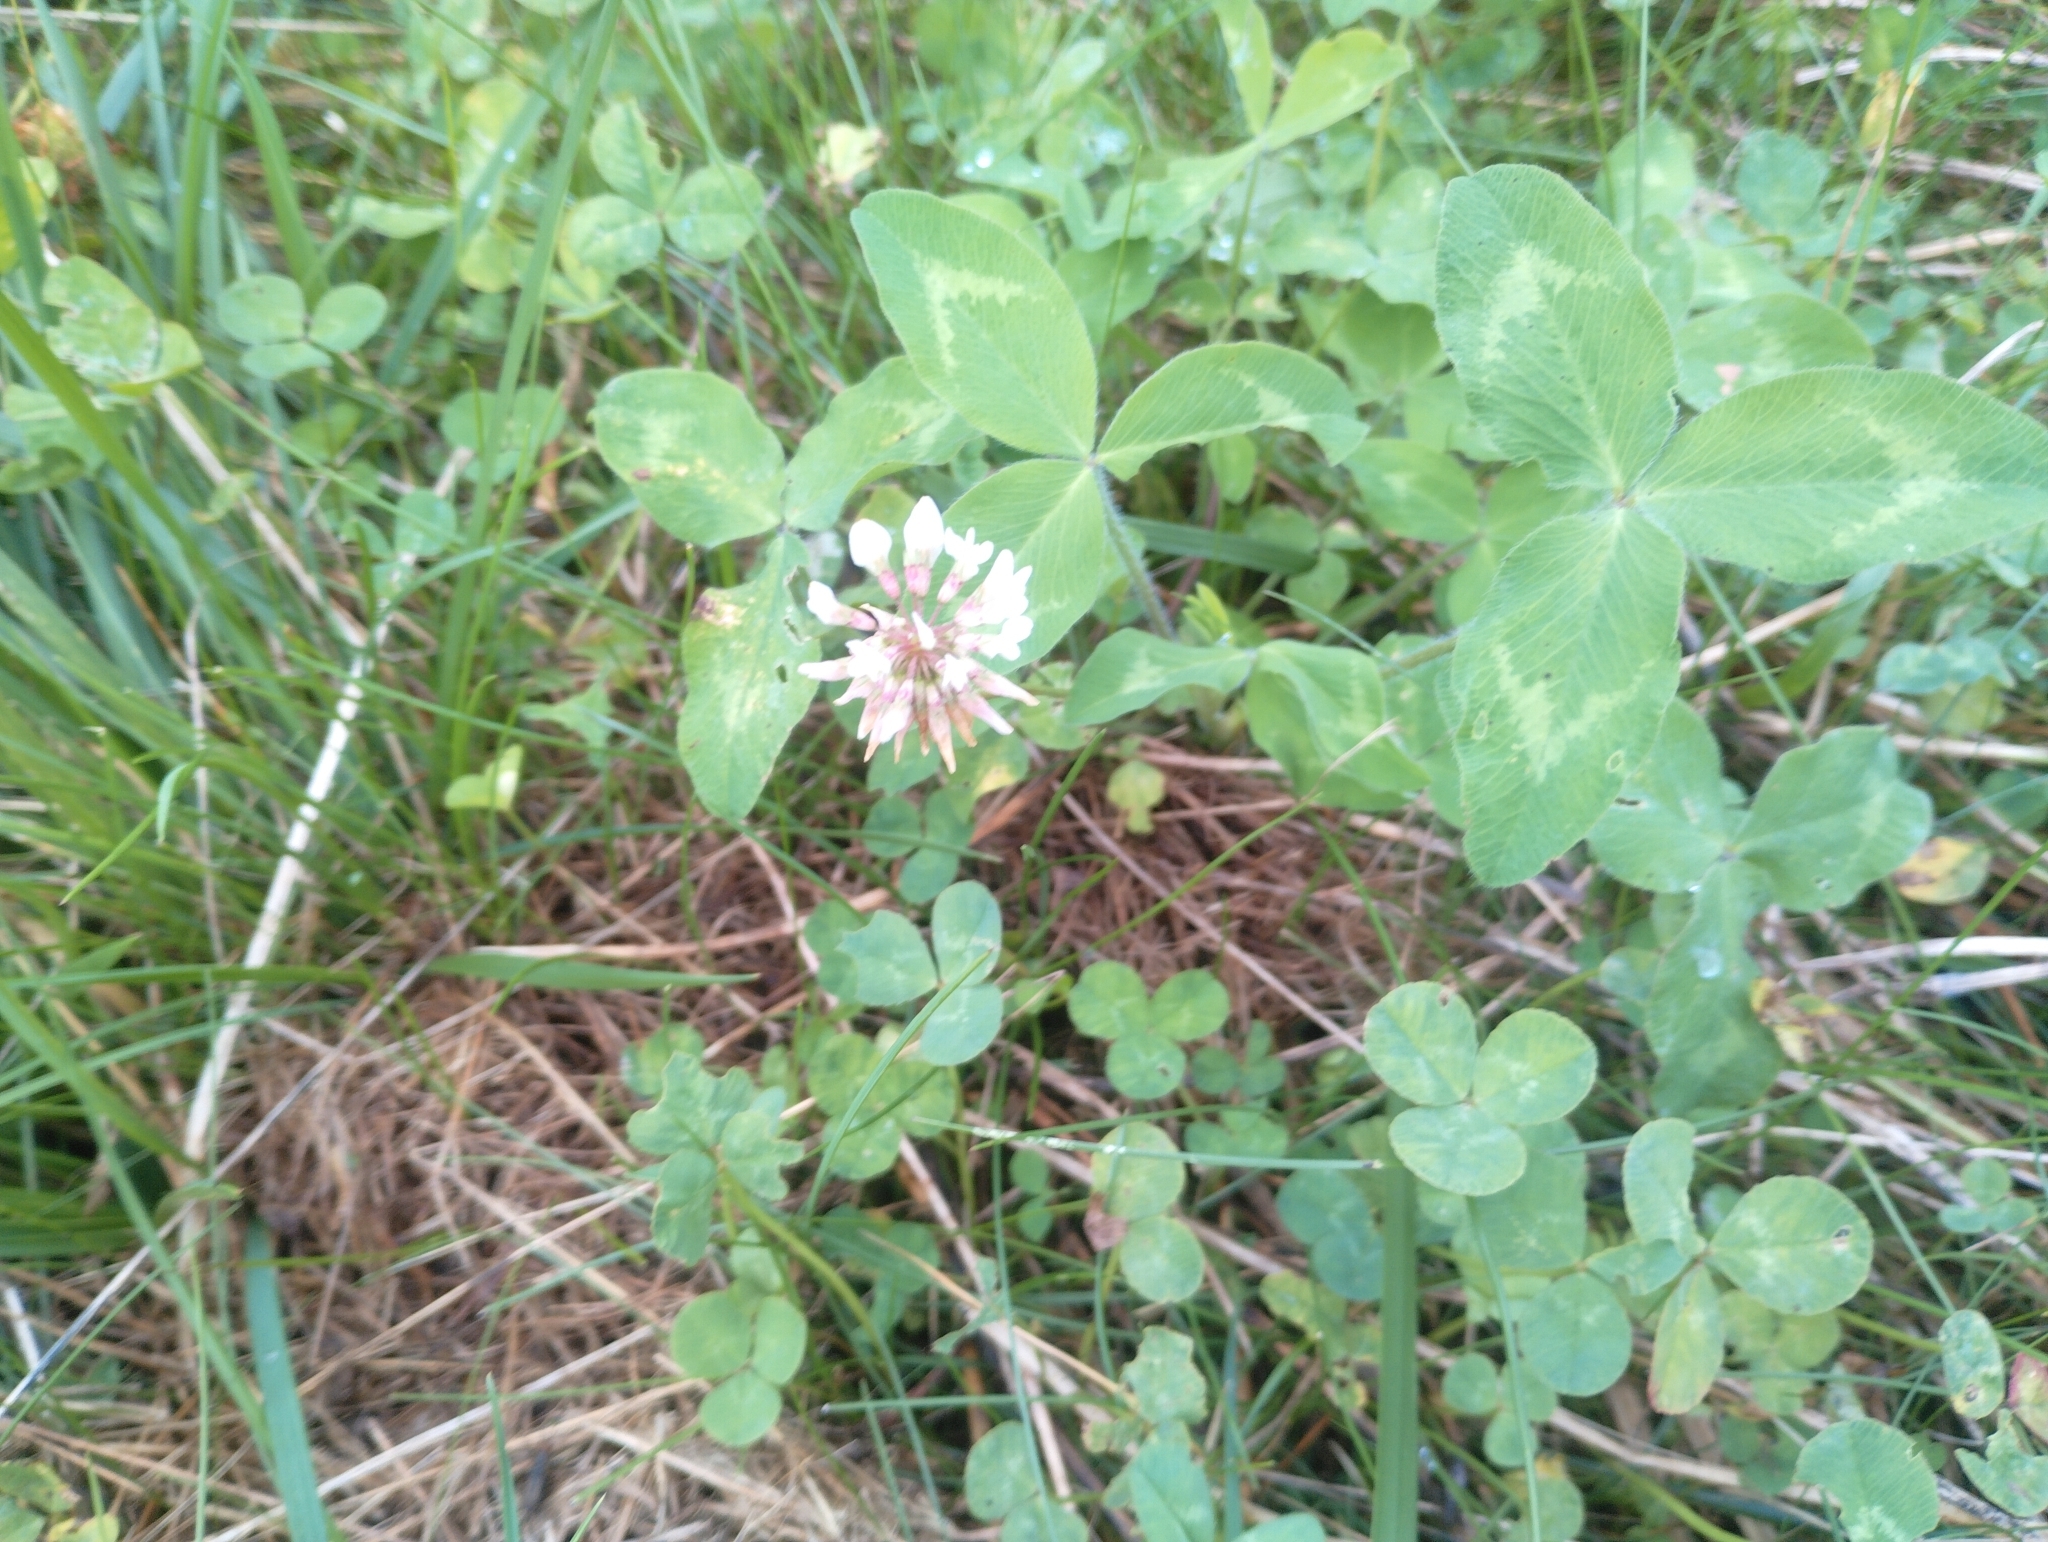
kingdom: Plantae
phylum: Tracheophyta
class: Magnoliopsida
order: Fabales
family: Fabaceae
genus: Trifolium
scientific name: Trifolium repens
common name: White clover
